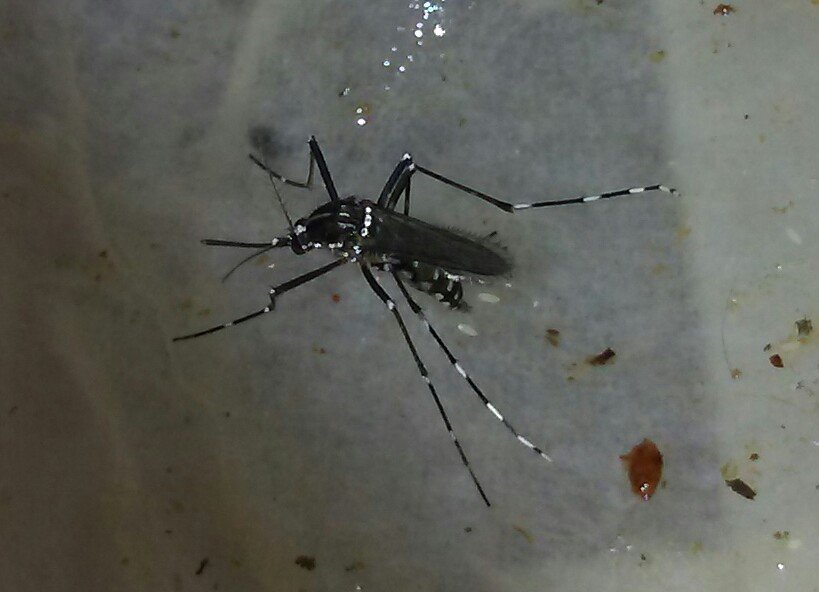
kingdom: Animalia
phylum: Arthropoda
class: Insecta
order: Diptera
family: Culicidae
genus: Aedes
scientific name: Aedes albopictus
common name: Tiger mosquito
